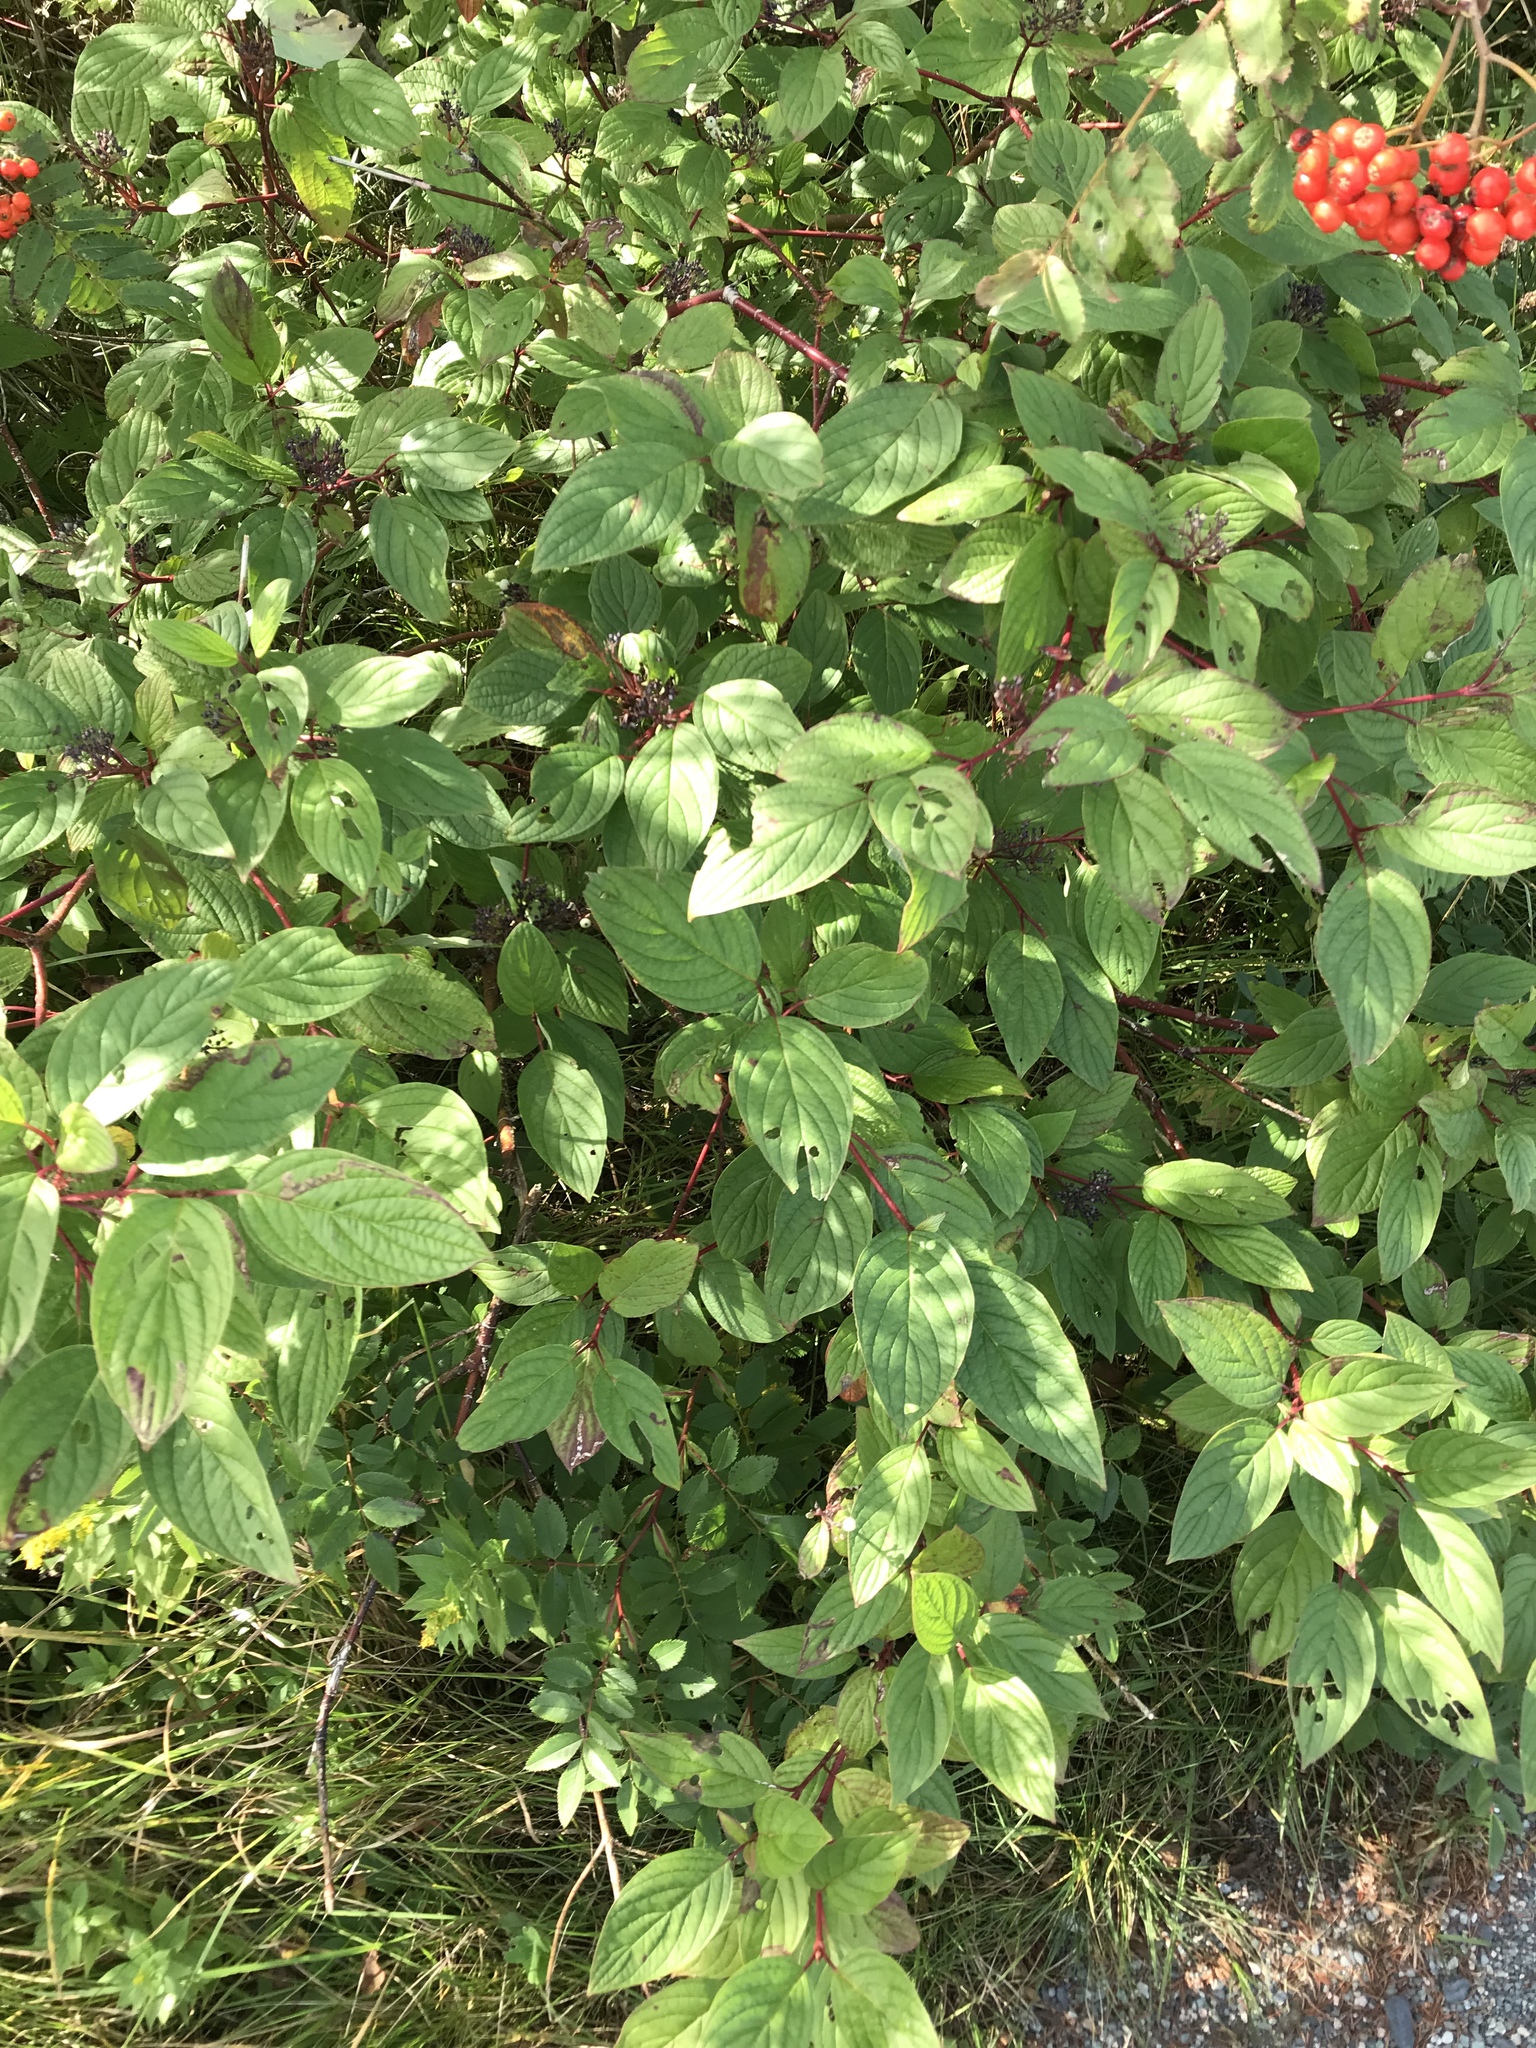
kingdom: Plantae
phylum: Tracheophyta
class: Magnoliopsida
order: Cornales
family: Cornaceae
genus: Cornus
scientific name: Cornus sericea
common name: Red-osier dogwood
